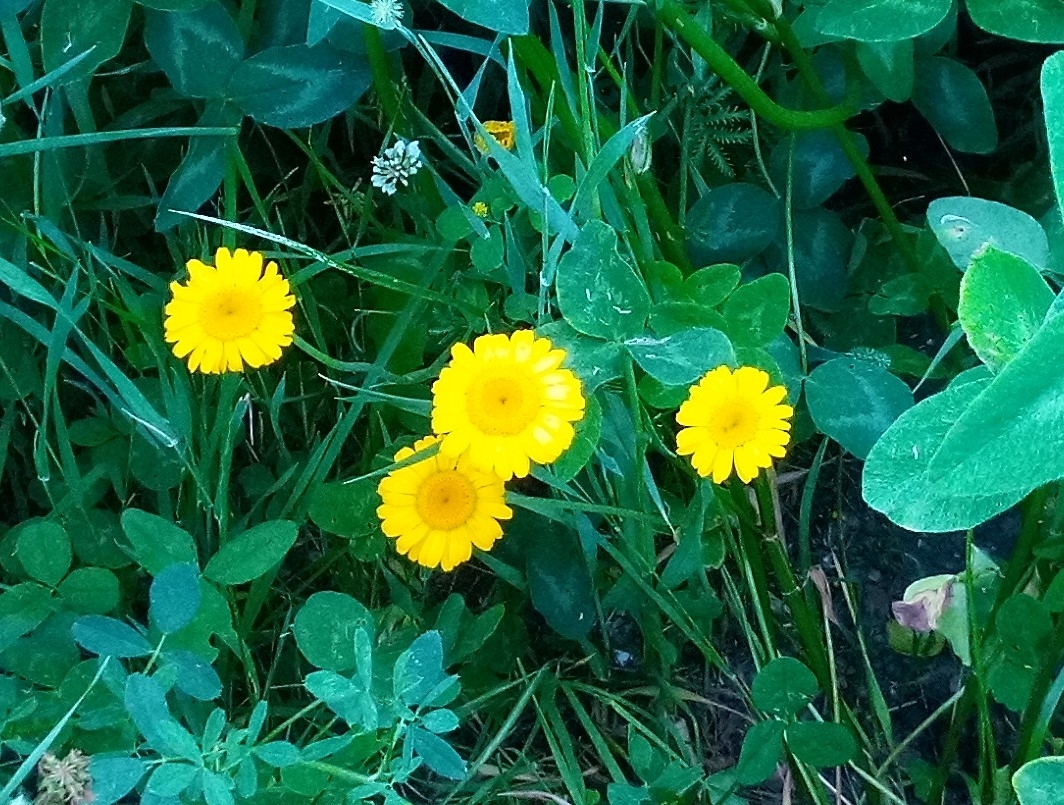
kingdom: Plantae
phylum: Tracheophyta
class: Magnoliopsida
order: Asterales
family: Asteraceae
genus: Cota
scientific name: Cota tinctoria
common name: Golden chamomile
